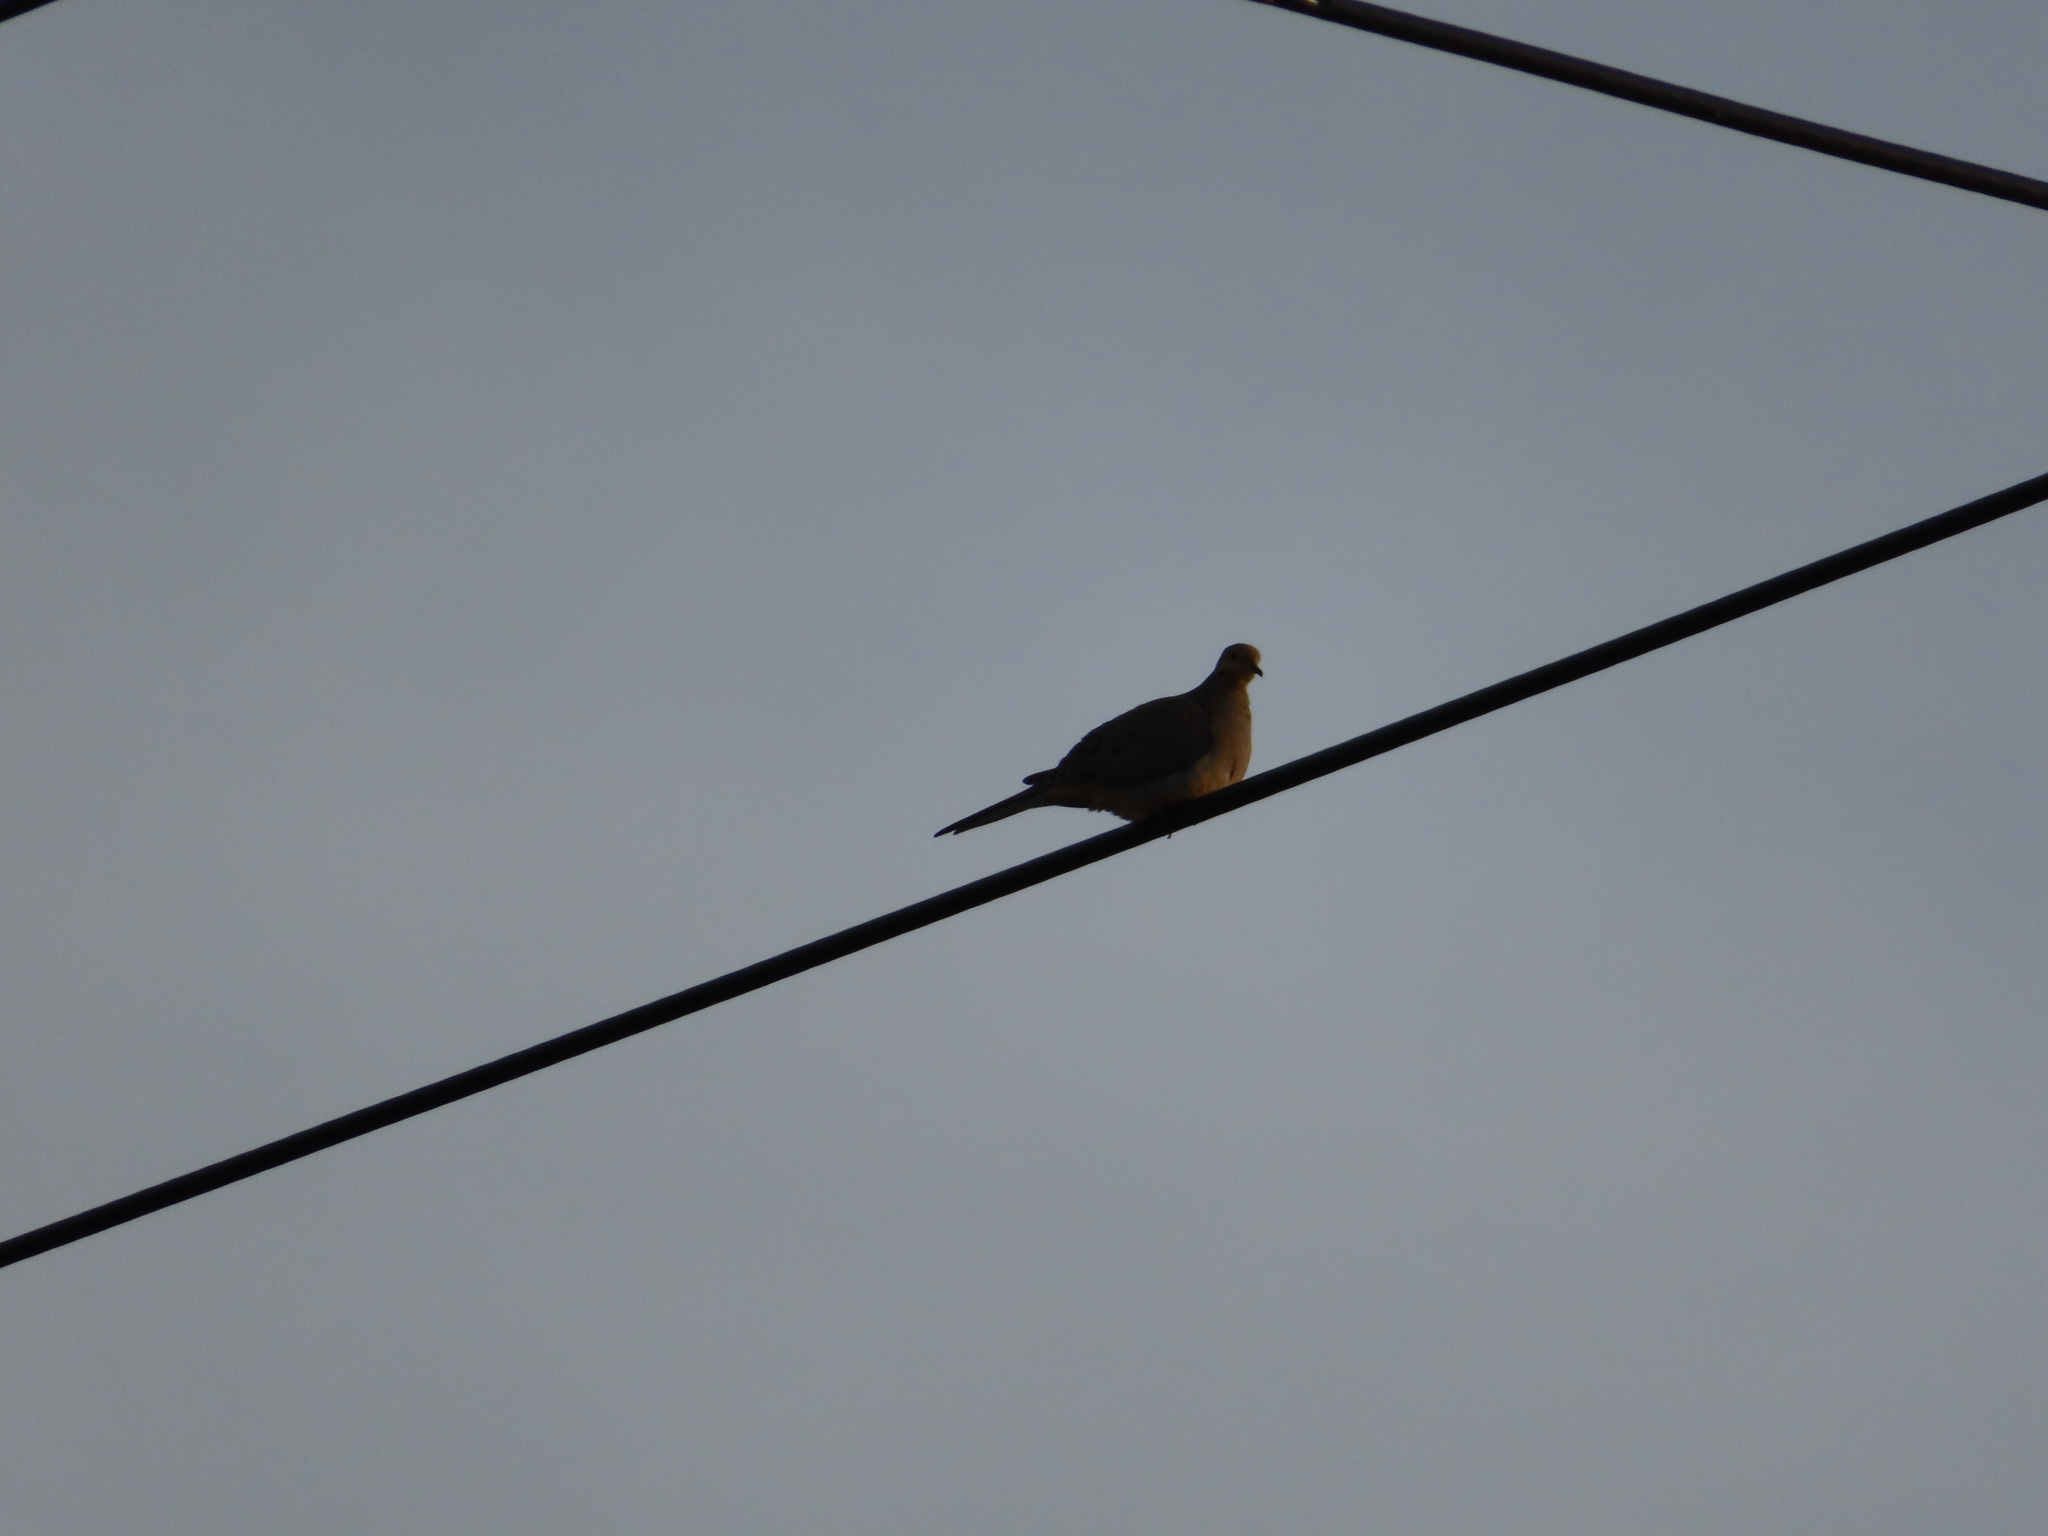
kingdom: Animalia
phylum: Chordata
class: Aves
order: Columbiformes
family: Columbidae
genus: Zenaida
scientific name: Zenaida macroura
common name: Mourning dove
